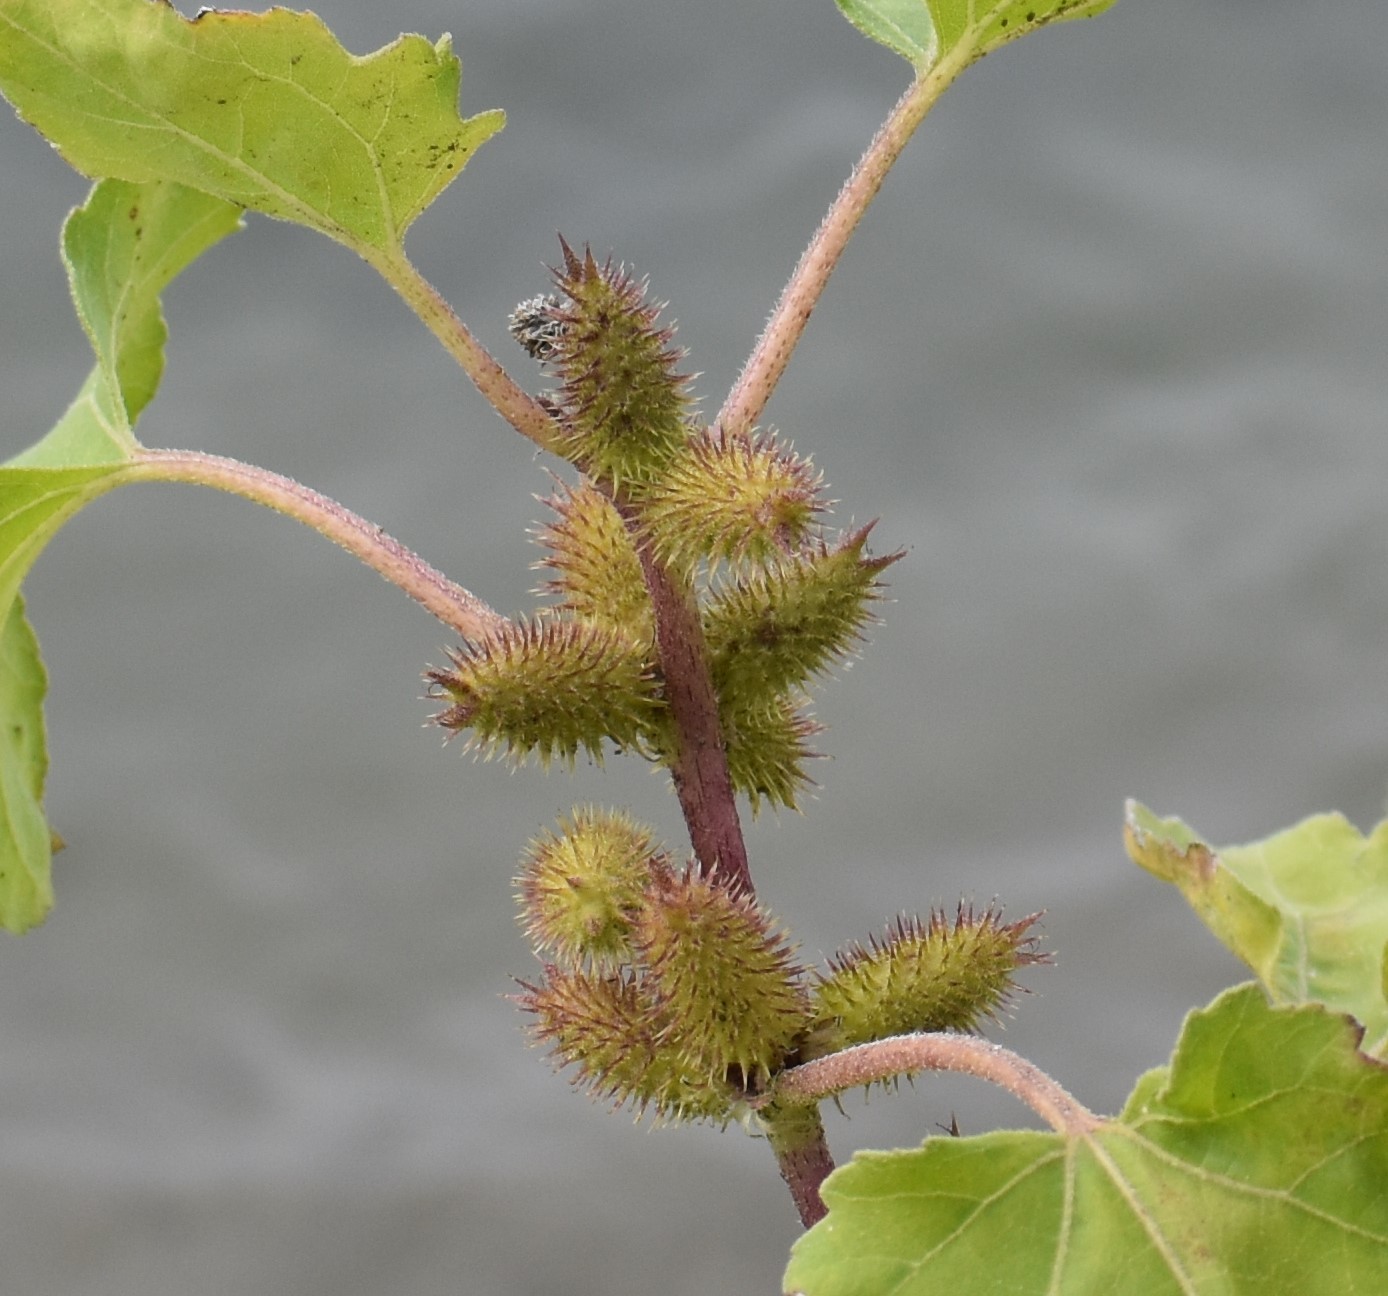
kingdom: Plantae
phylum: Tracheophyta
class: Magnoliopsida
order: Asterales
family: Asteraceae
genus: Xanthium
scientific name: Xanthium strumarium
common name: Rough cocklebur
